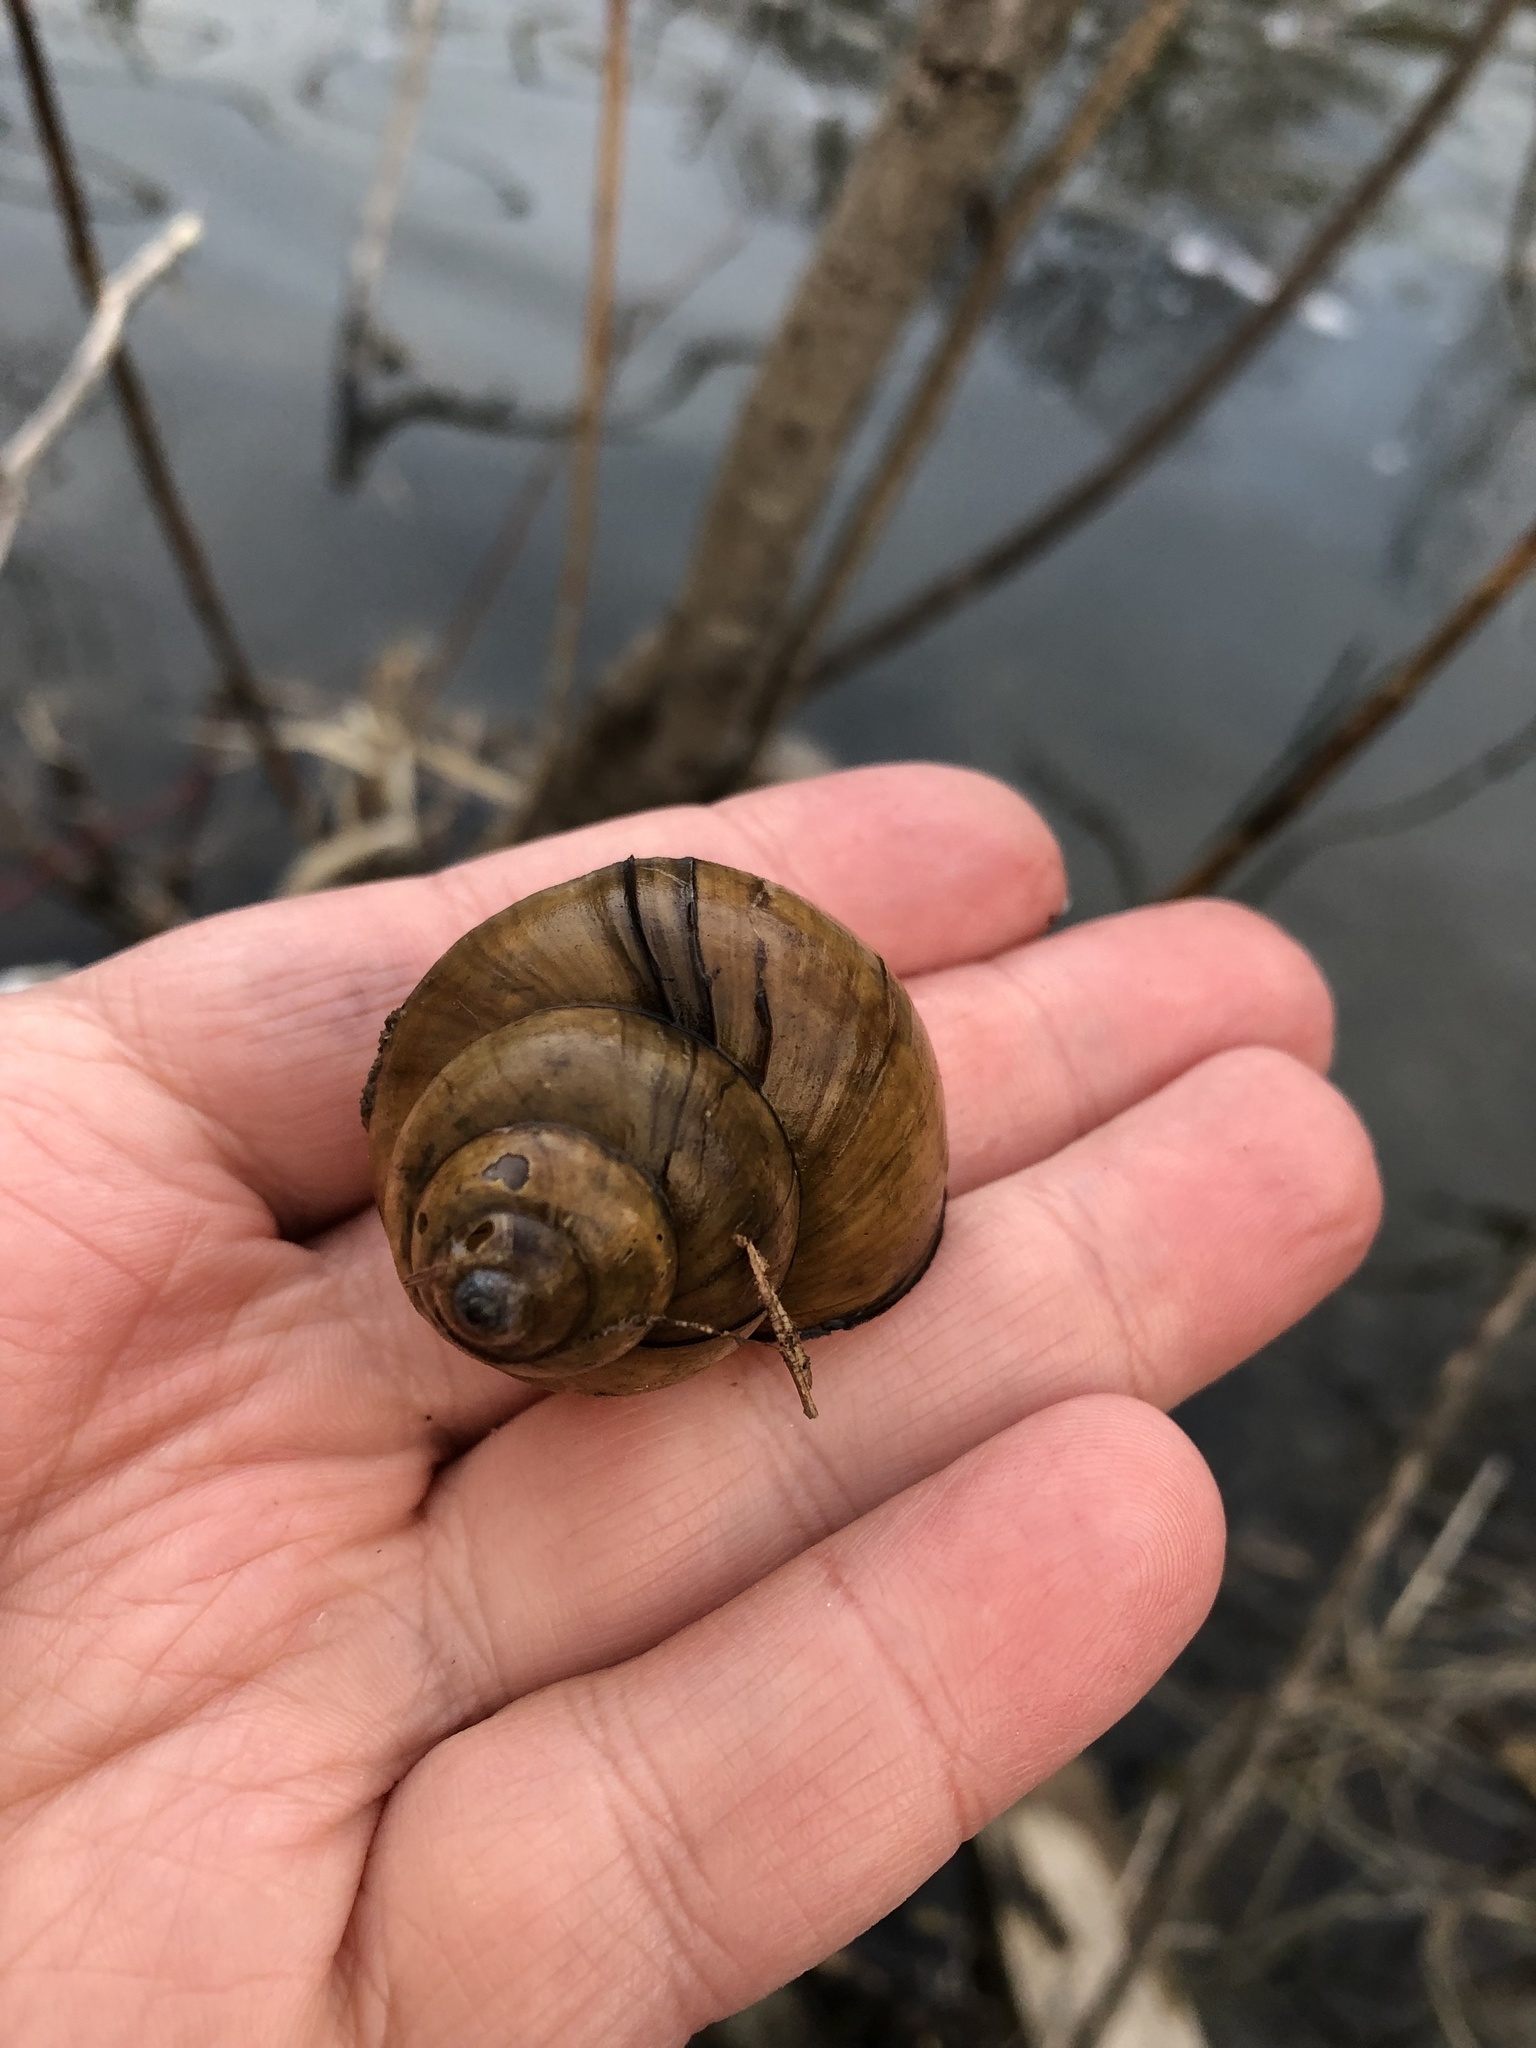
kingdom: Animalia
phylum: Mollusca
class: Gastropoda
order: Architaenioglossa
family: Viviparidae
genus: Cipangopaludina
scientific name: Cipangopaludina chinensis
